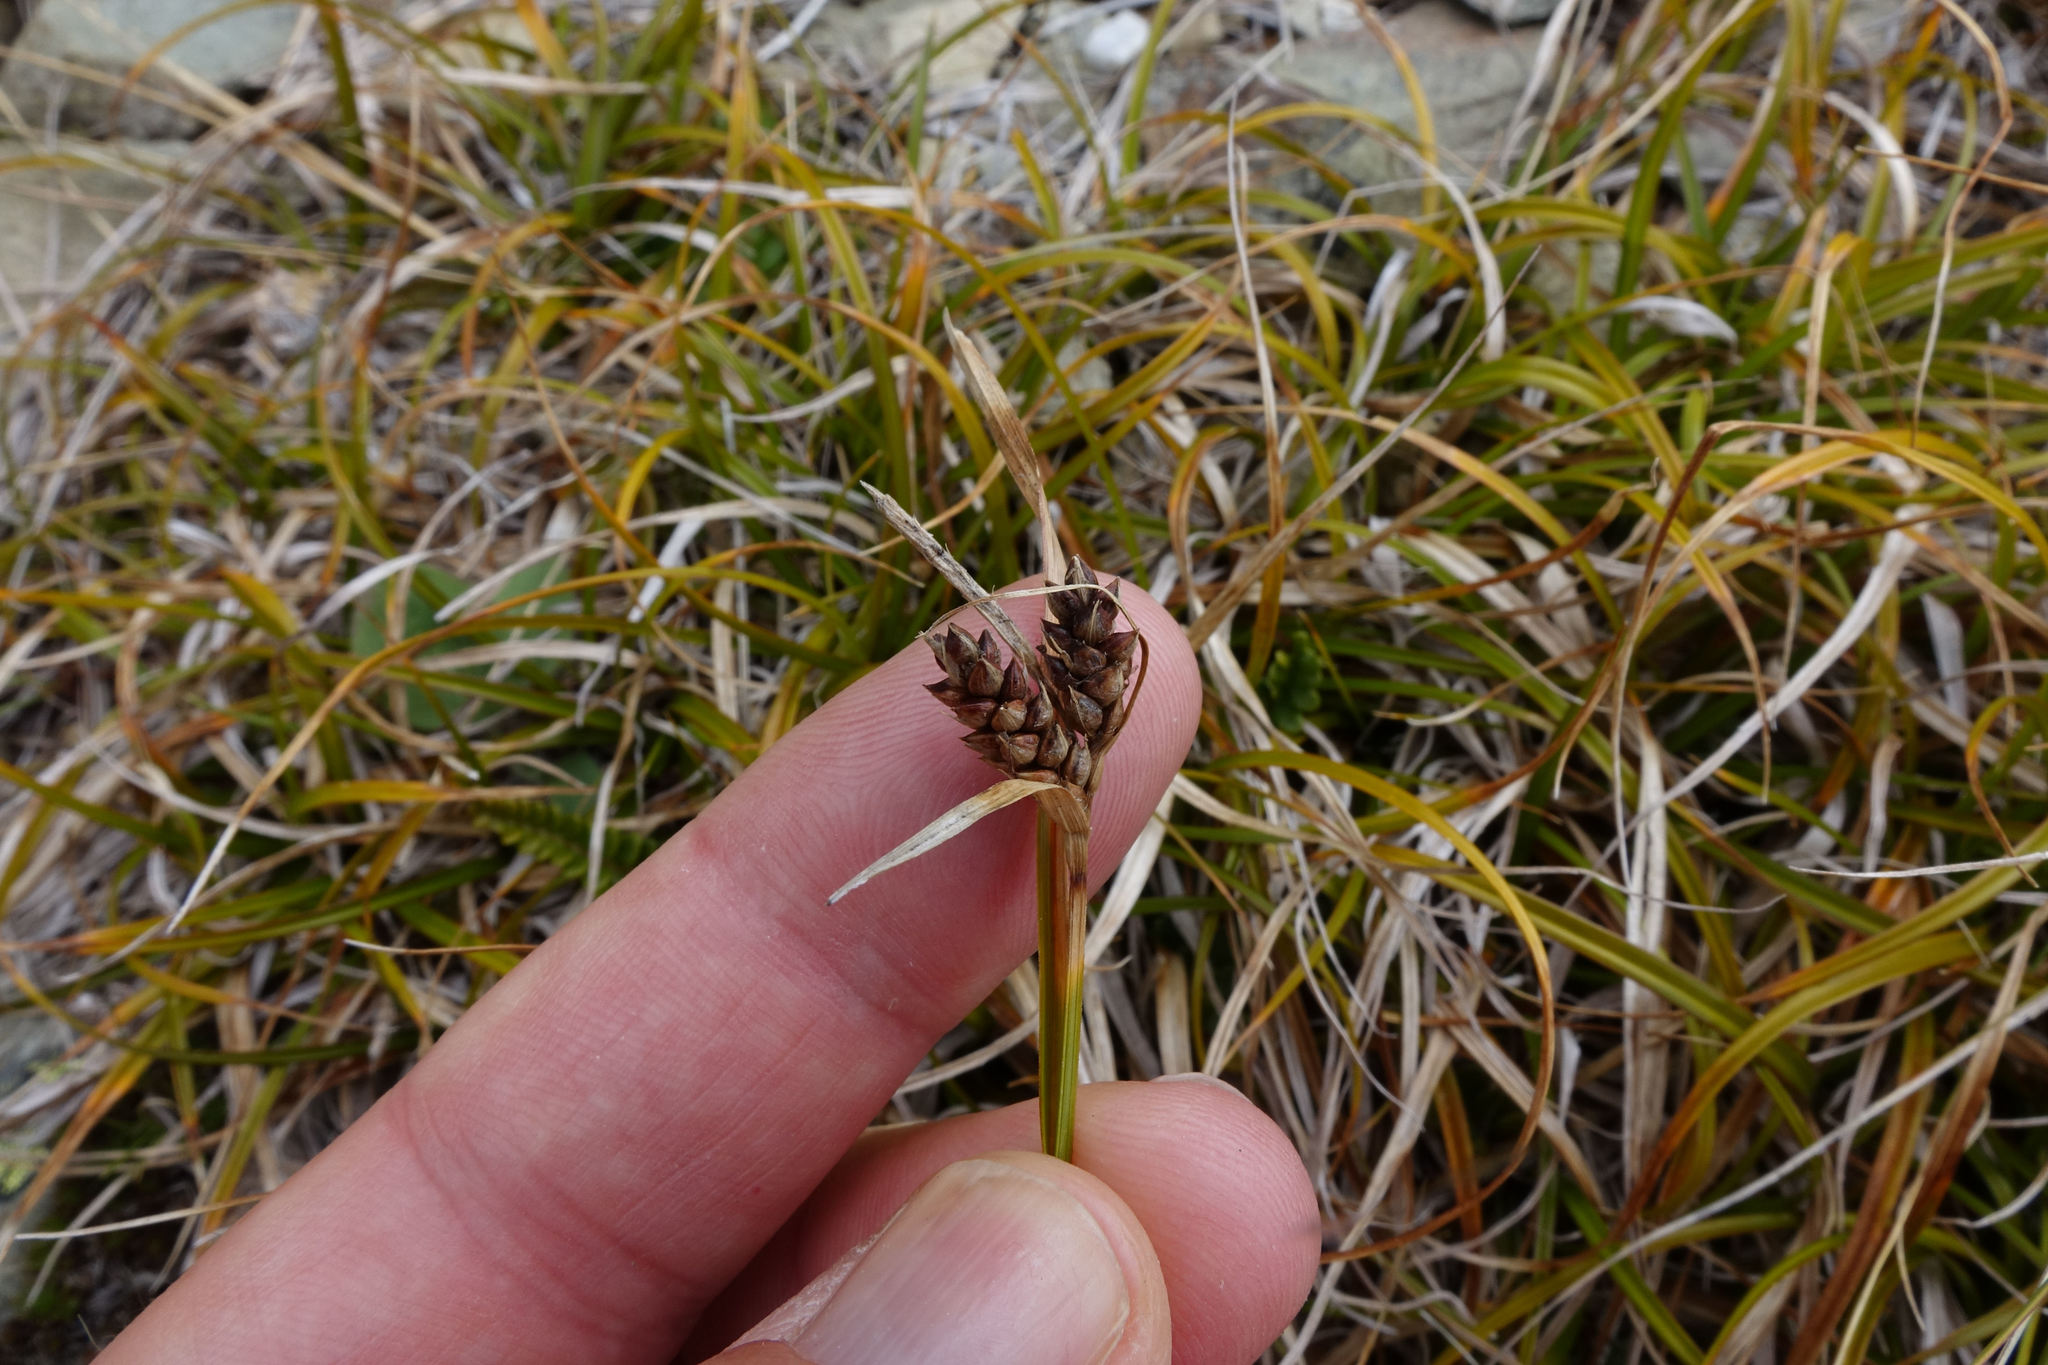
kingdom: Plantae
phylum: Tracheophyta
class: Liliopsida
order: Poales
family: Cyperaceae
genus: Carex
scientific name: Carex wakatipu
